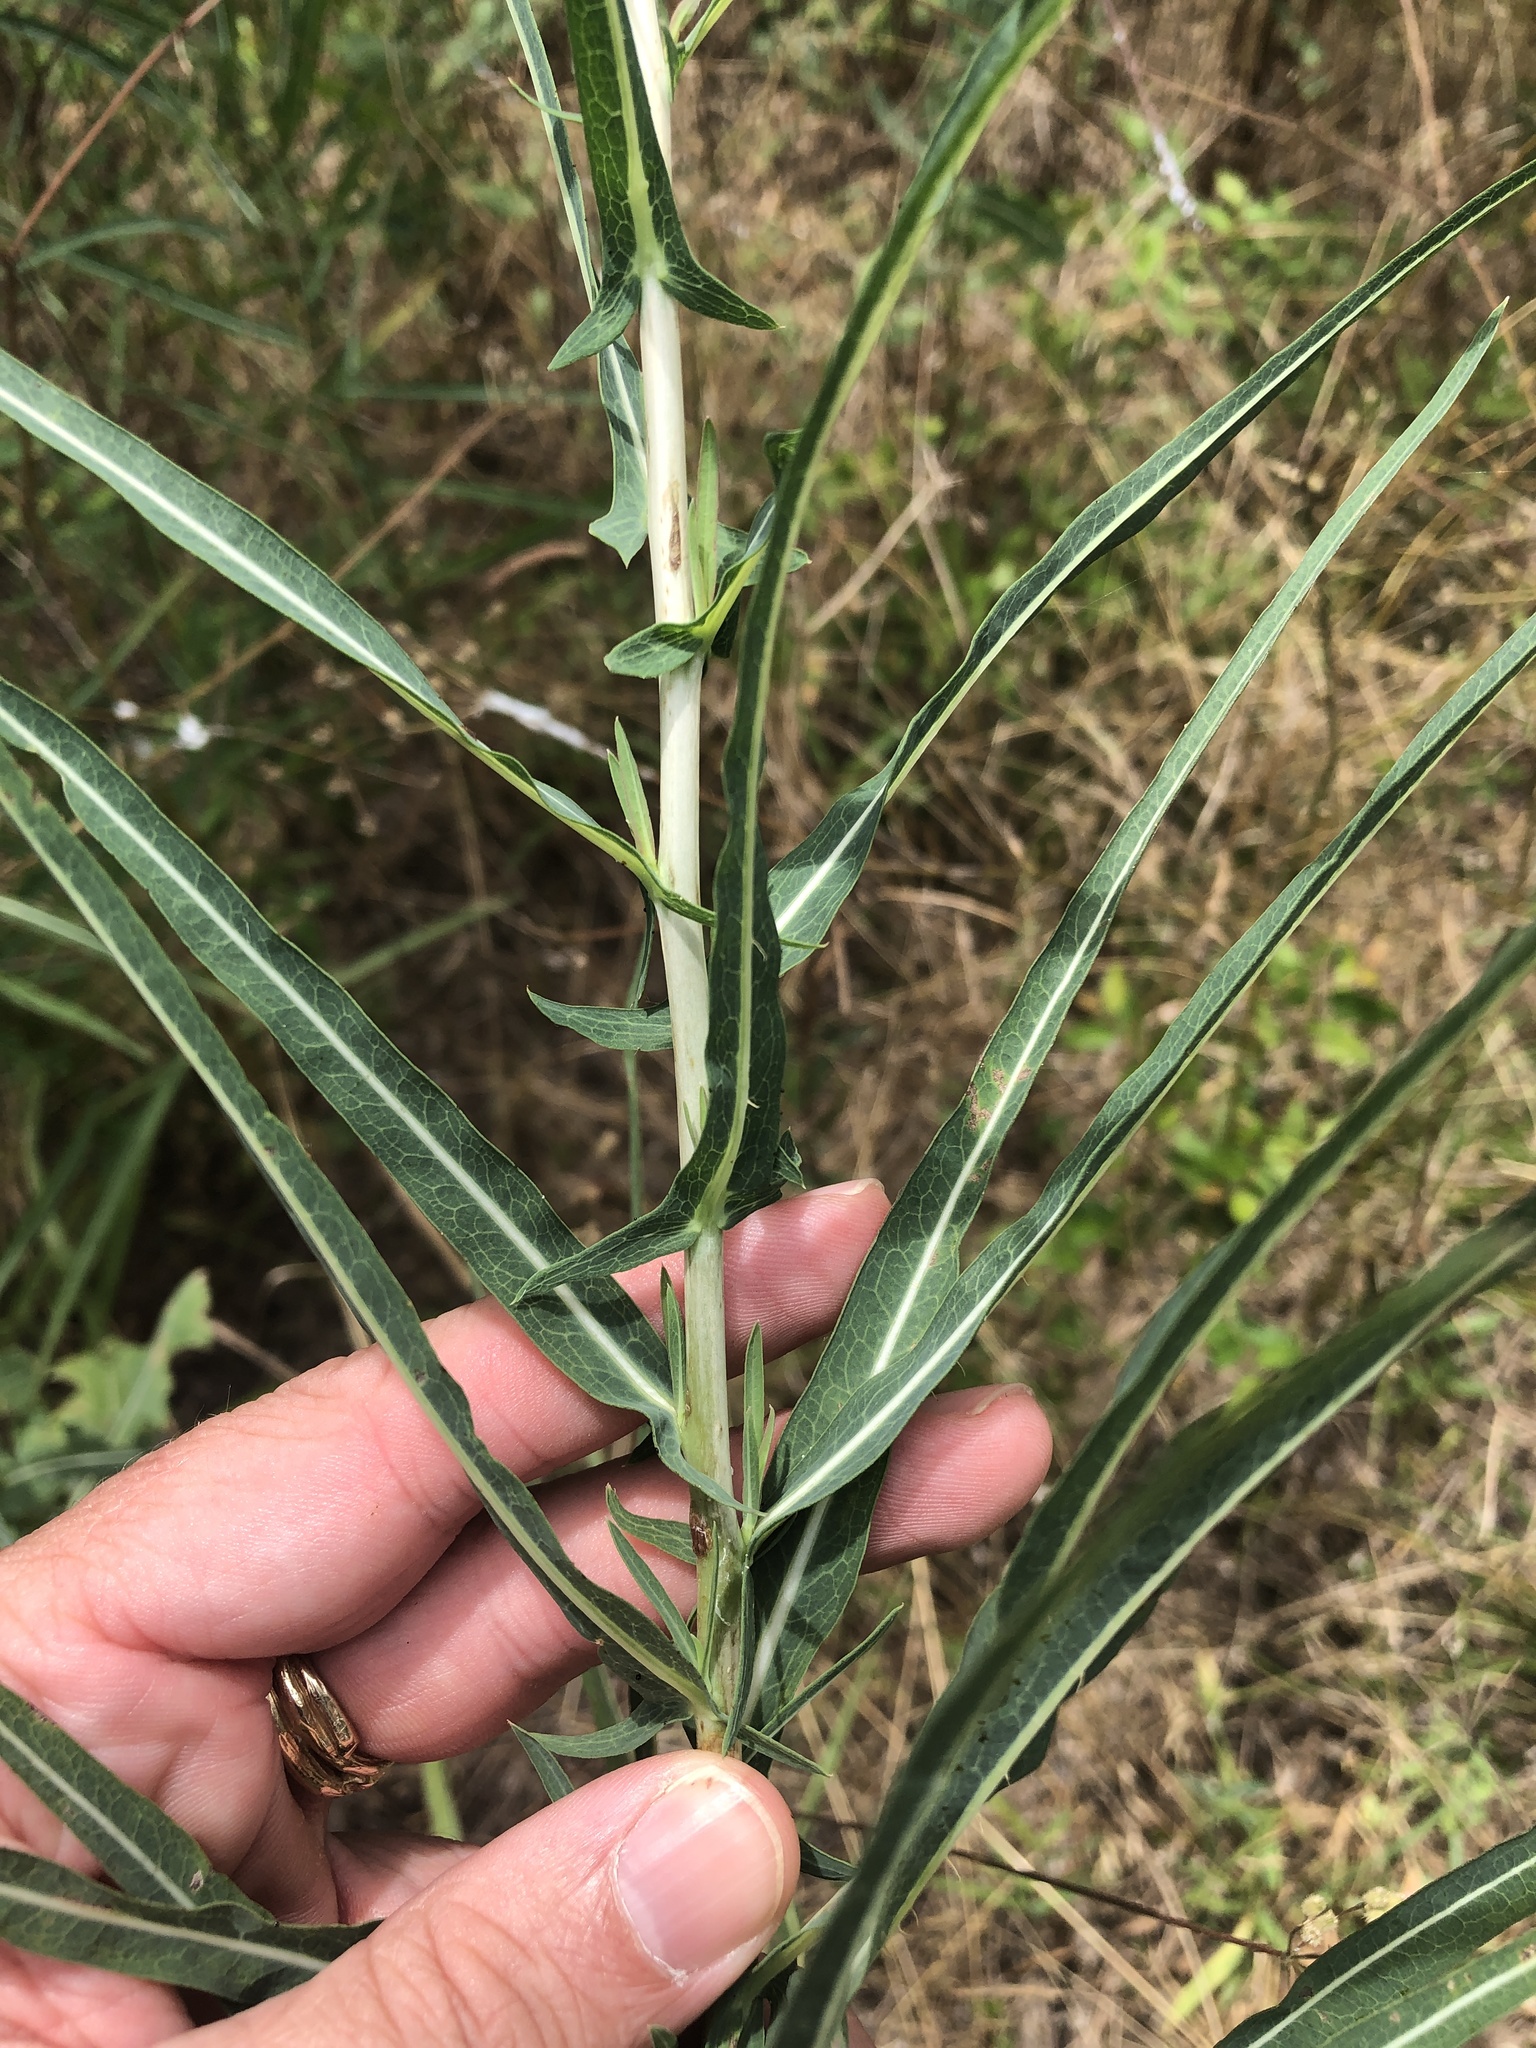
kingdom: Plantae
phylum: Tracheophyta
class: Magnoliopsida
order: Asterales
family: Asteraceae
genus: Lactuca
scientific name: Lactuca saligna
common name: Wild lettuce
